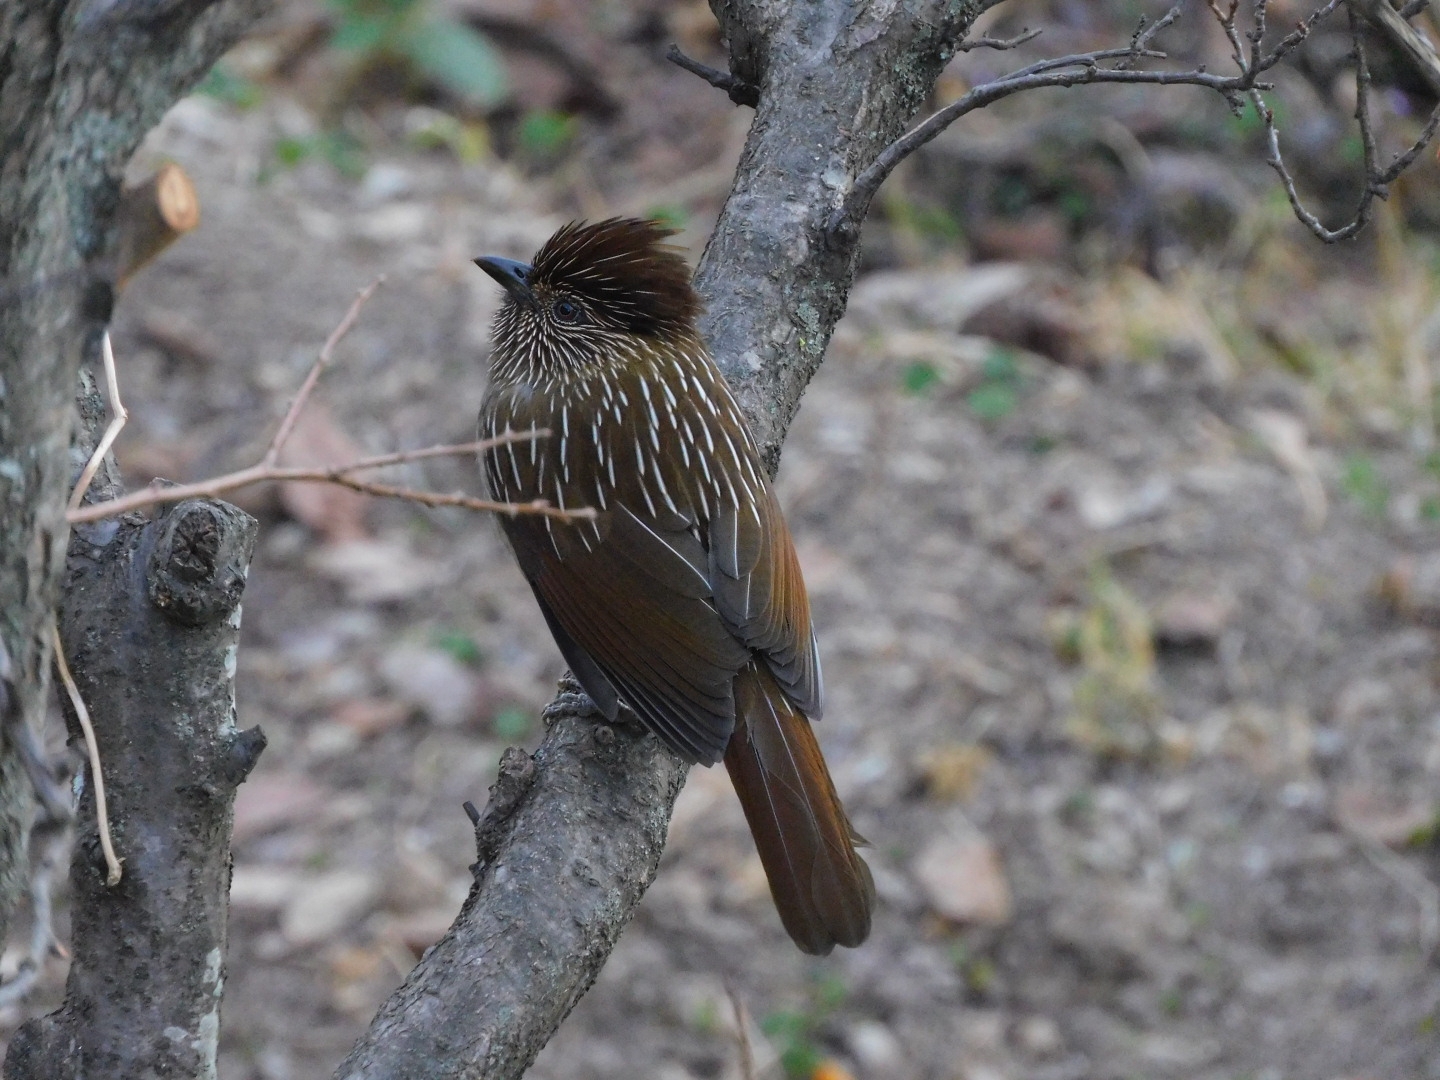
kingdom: Animalia
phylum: Chordata
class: Aves
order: Passeriformes
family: Leiothrichidae
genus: Garrulax
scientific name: Garrulax striatus
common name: Striated laughingthrush
